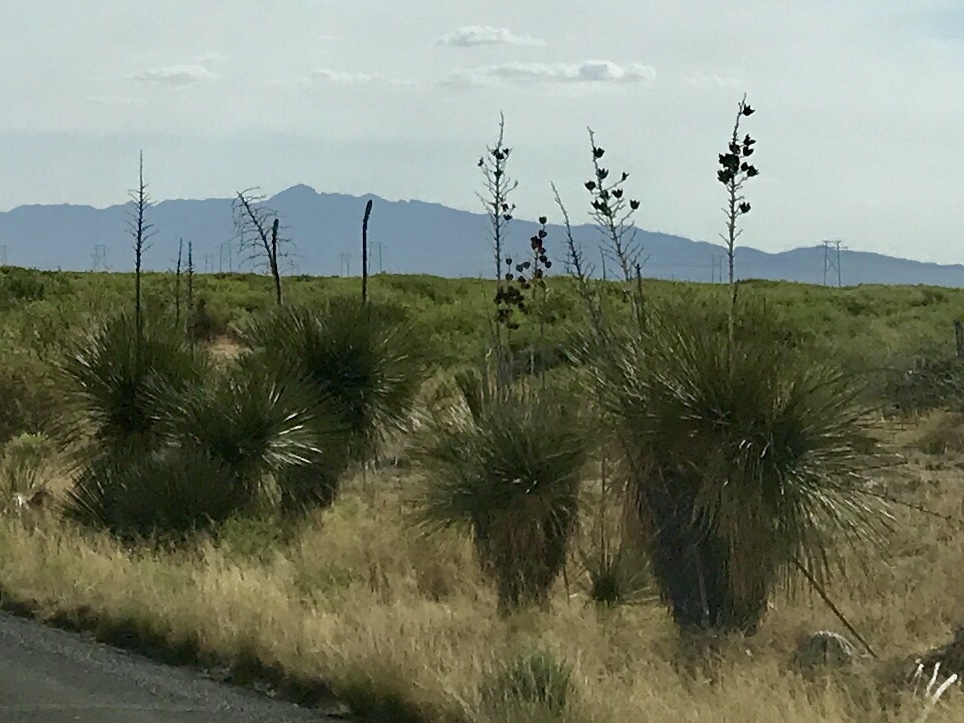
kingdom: Plantae
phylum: Tracheophyta
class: Liliopsida
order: Asparagales
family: Asparagaceae
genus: Yucca
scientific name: Yucca elata
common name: Palmella
